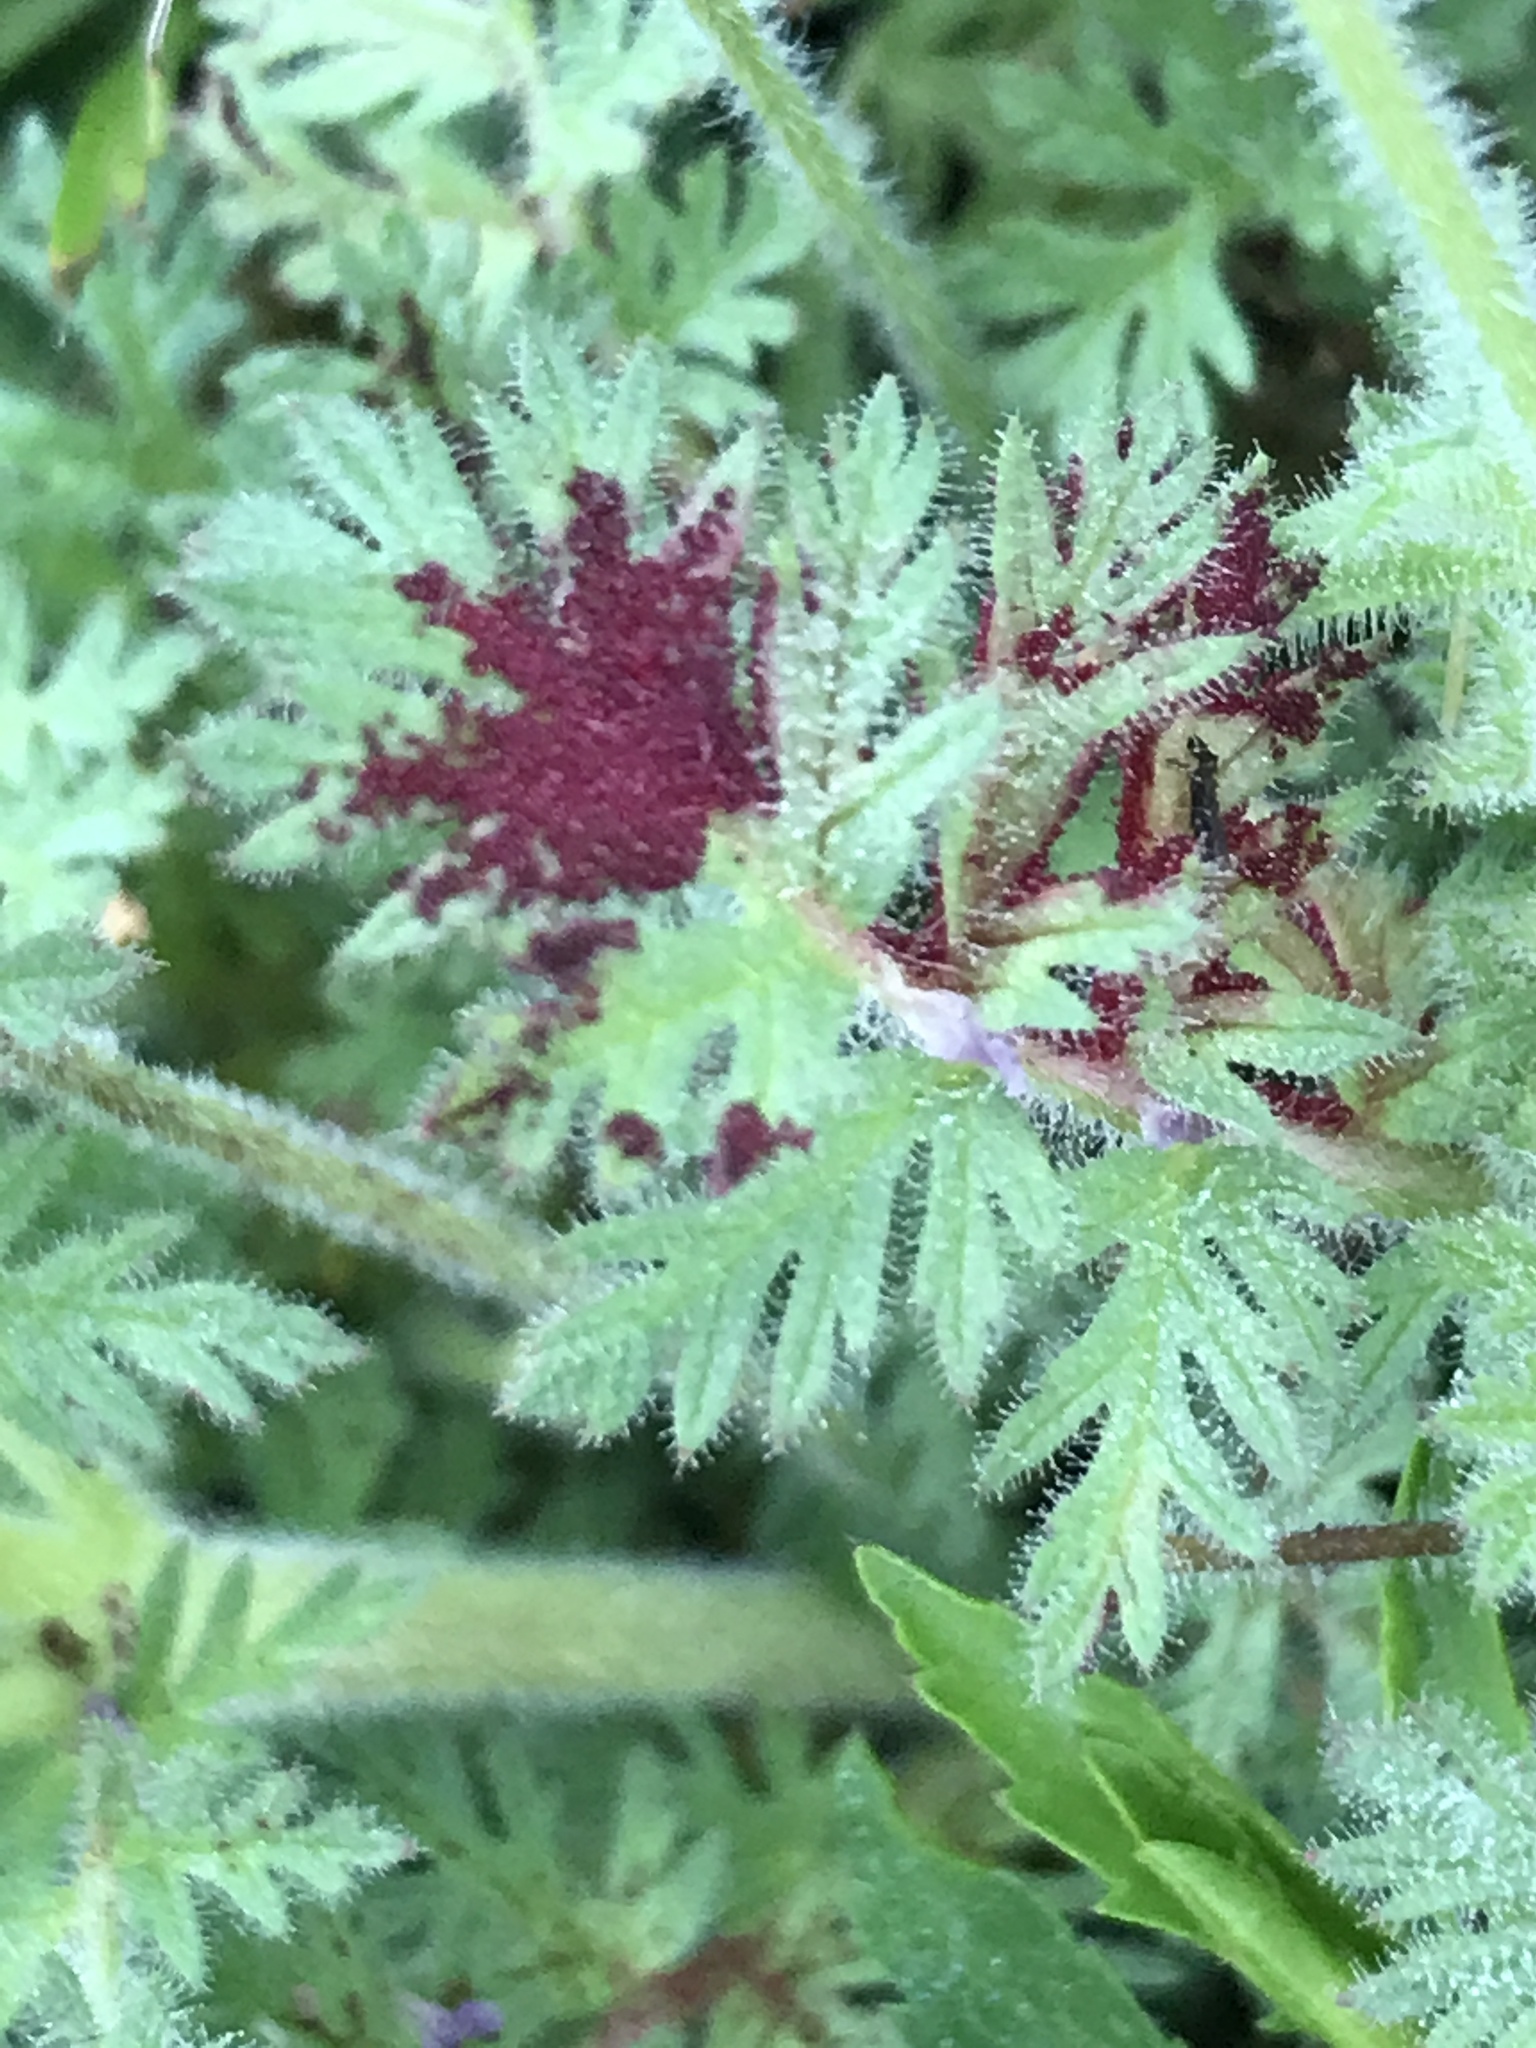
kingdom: Fungi
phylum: Chytridiomycota
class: Chytridiomycetes
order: Chytridiales
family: Synchytriaceae
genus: Synchytrium
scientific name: Synchytrium papillatum
